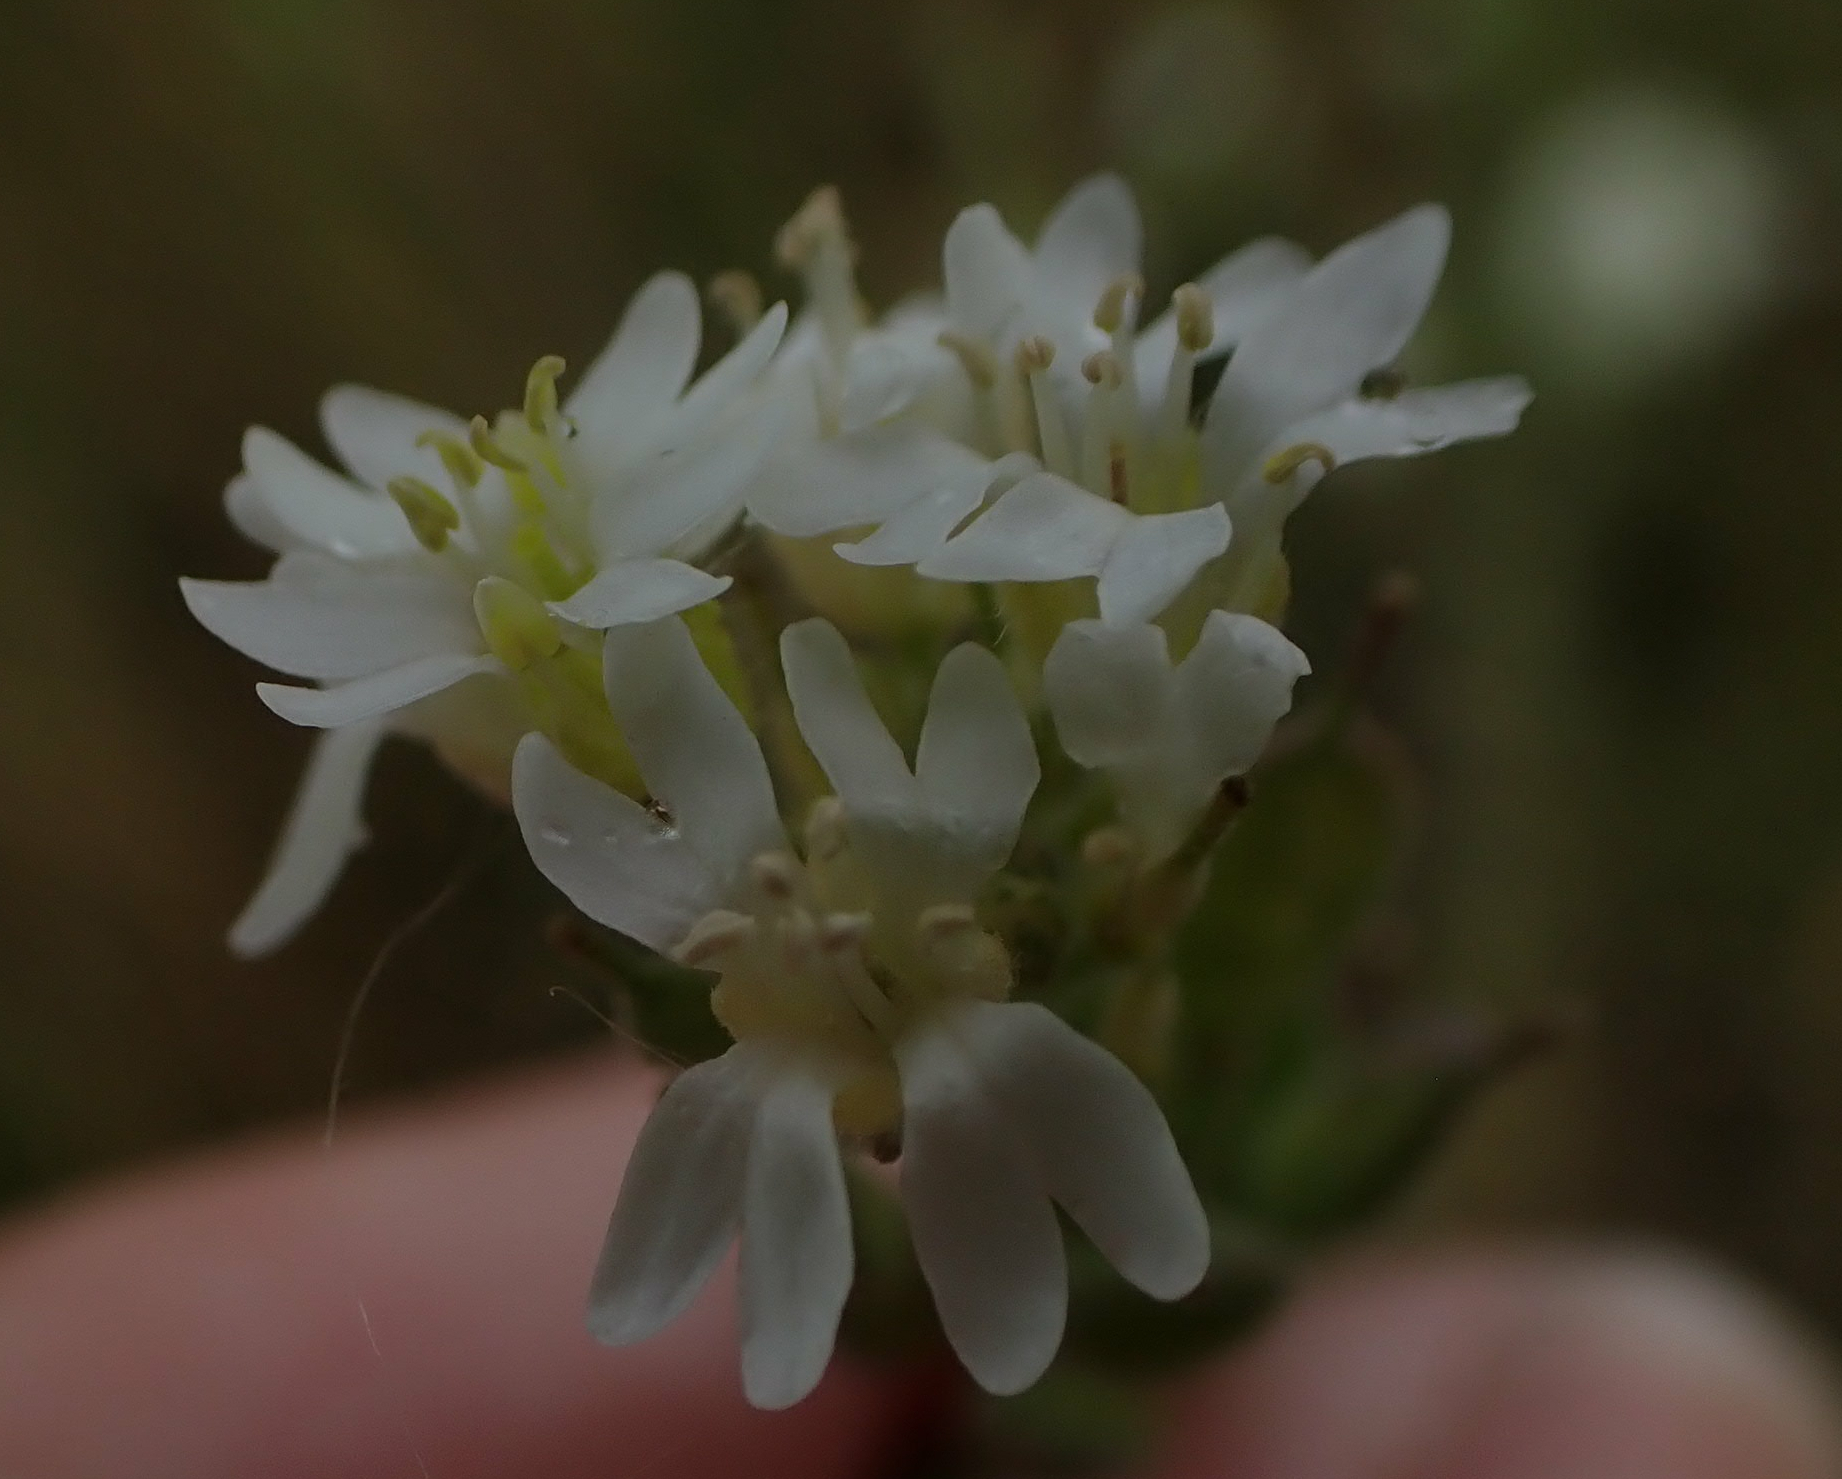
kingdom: Plantae
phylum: Tracheophyta
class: Magnoliopsida
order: Brassicales
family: Brassicaceae
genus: Berteroa
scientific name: Berteroa incana
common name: Hoary alison
